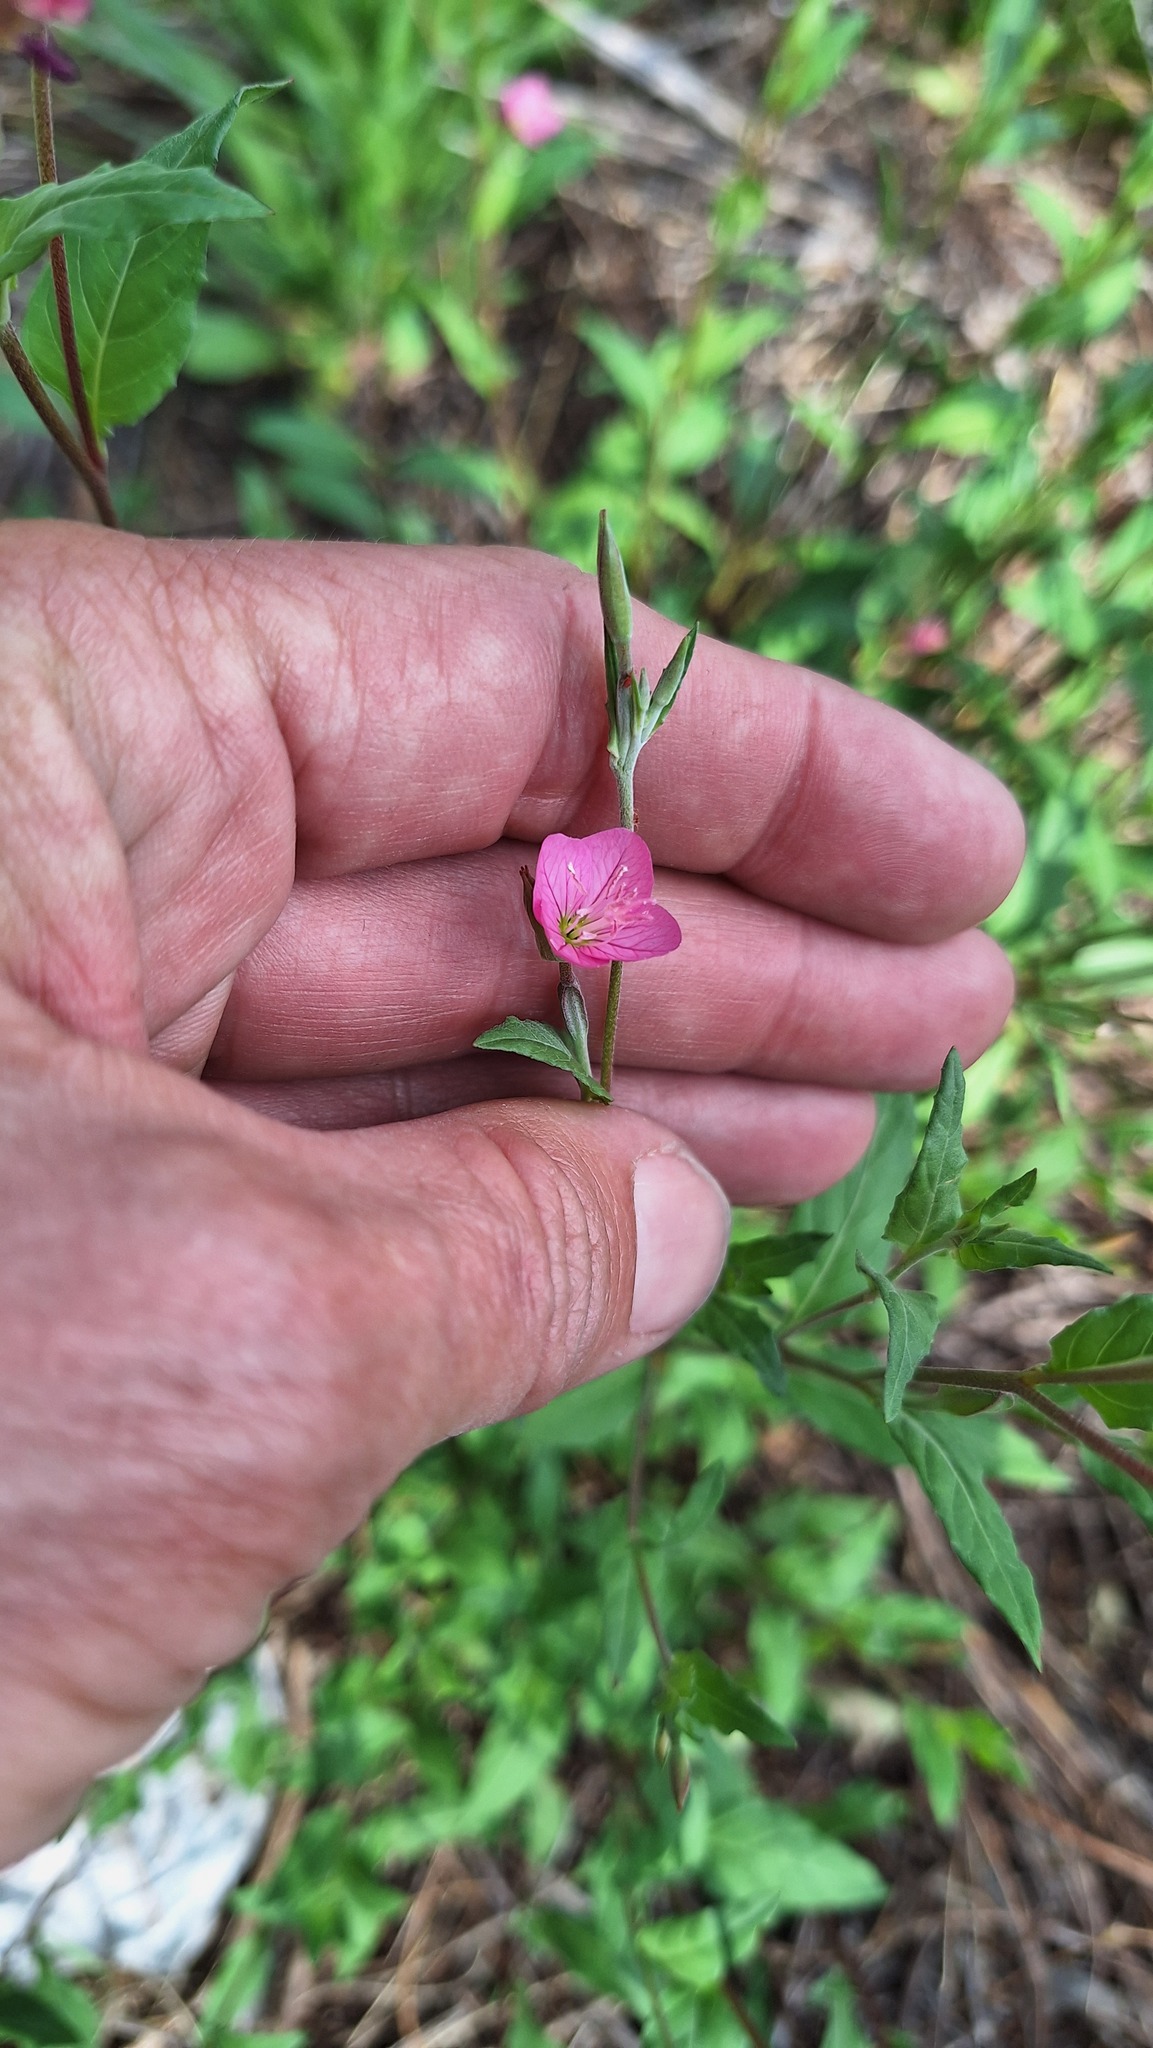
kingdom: Plantae
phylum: Tracheophyta
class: Magnoliopsida
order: Myrtales
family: Onagraceae
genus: Oenothera
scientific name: Oenothera rosea
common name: Rosy evening-primrose
